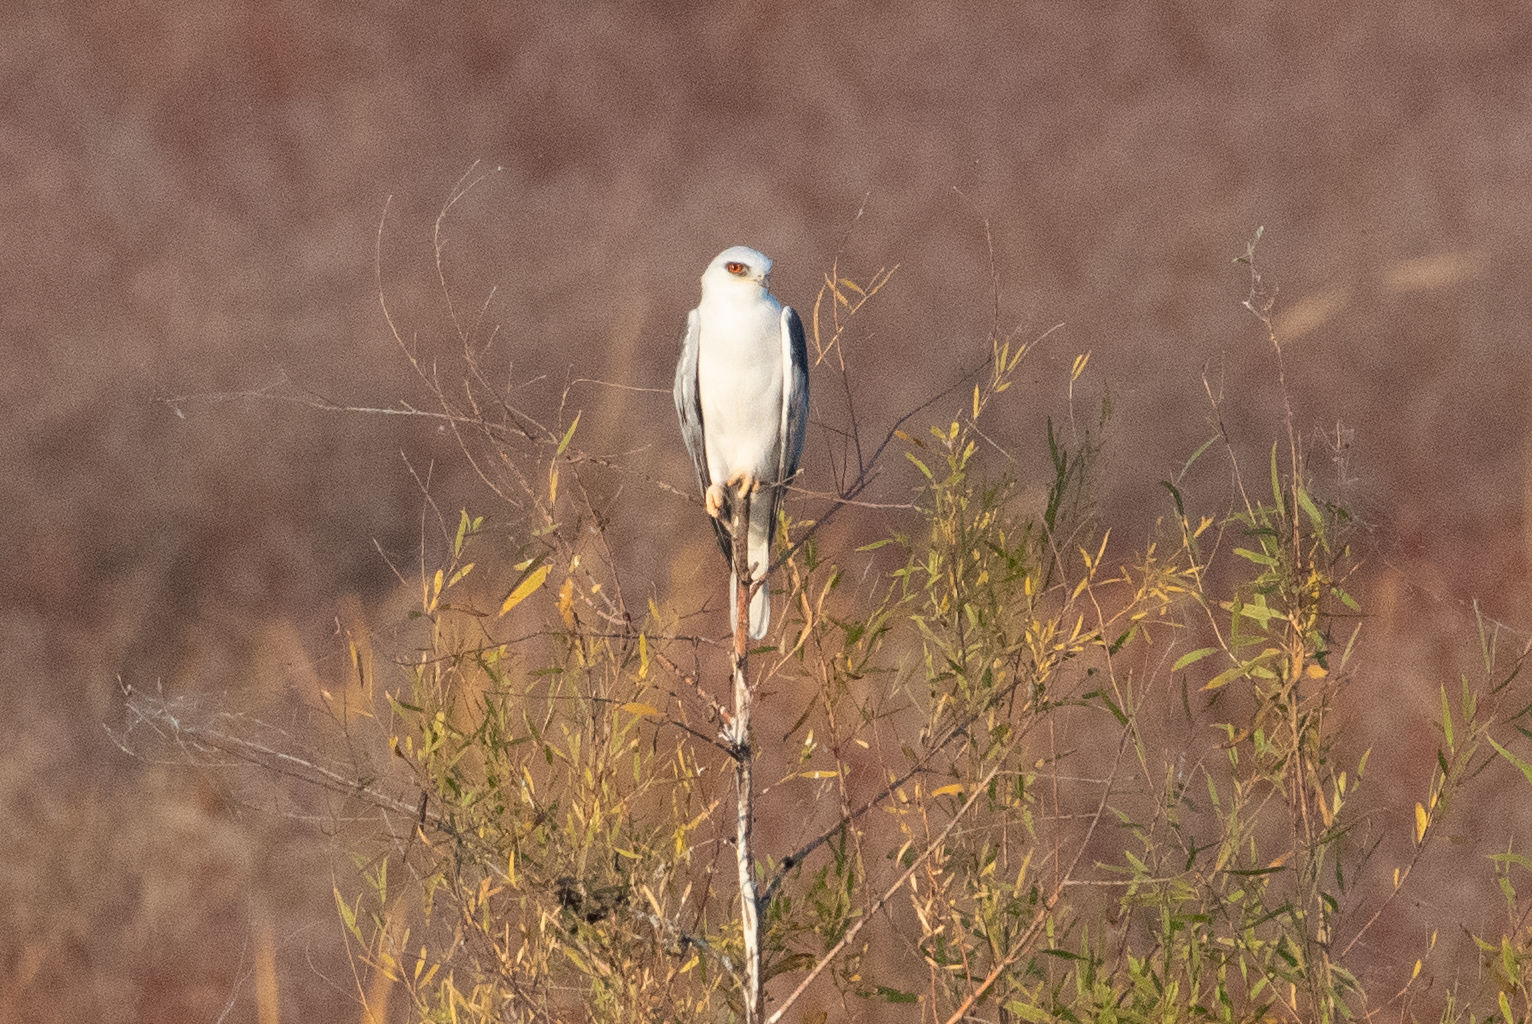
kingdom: Animalia
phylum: Chordata
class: Aves
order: Accipitriformes
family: Accipitridae
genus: Elanus
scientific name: Elanus leucurus
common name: White-tailed kite
